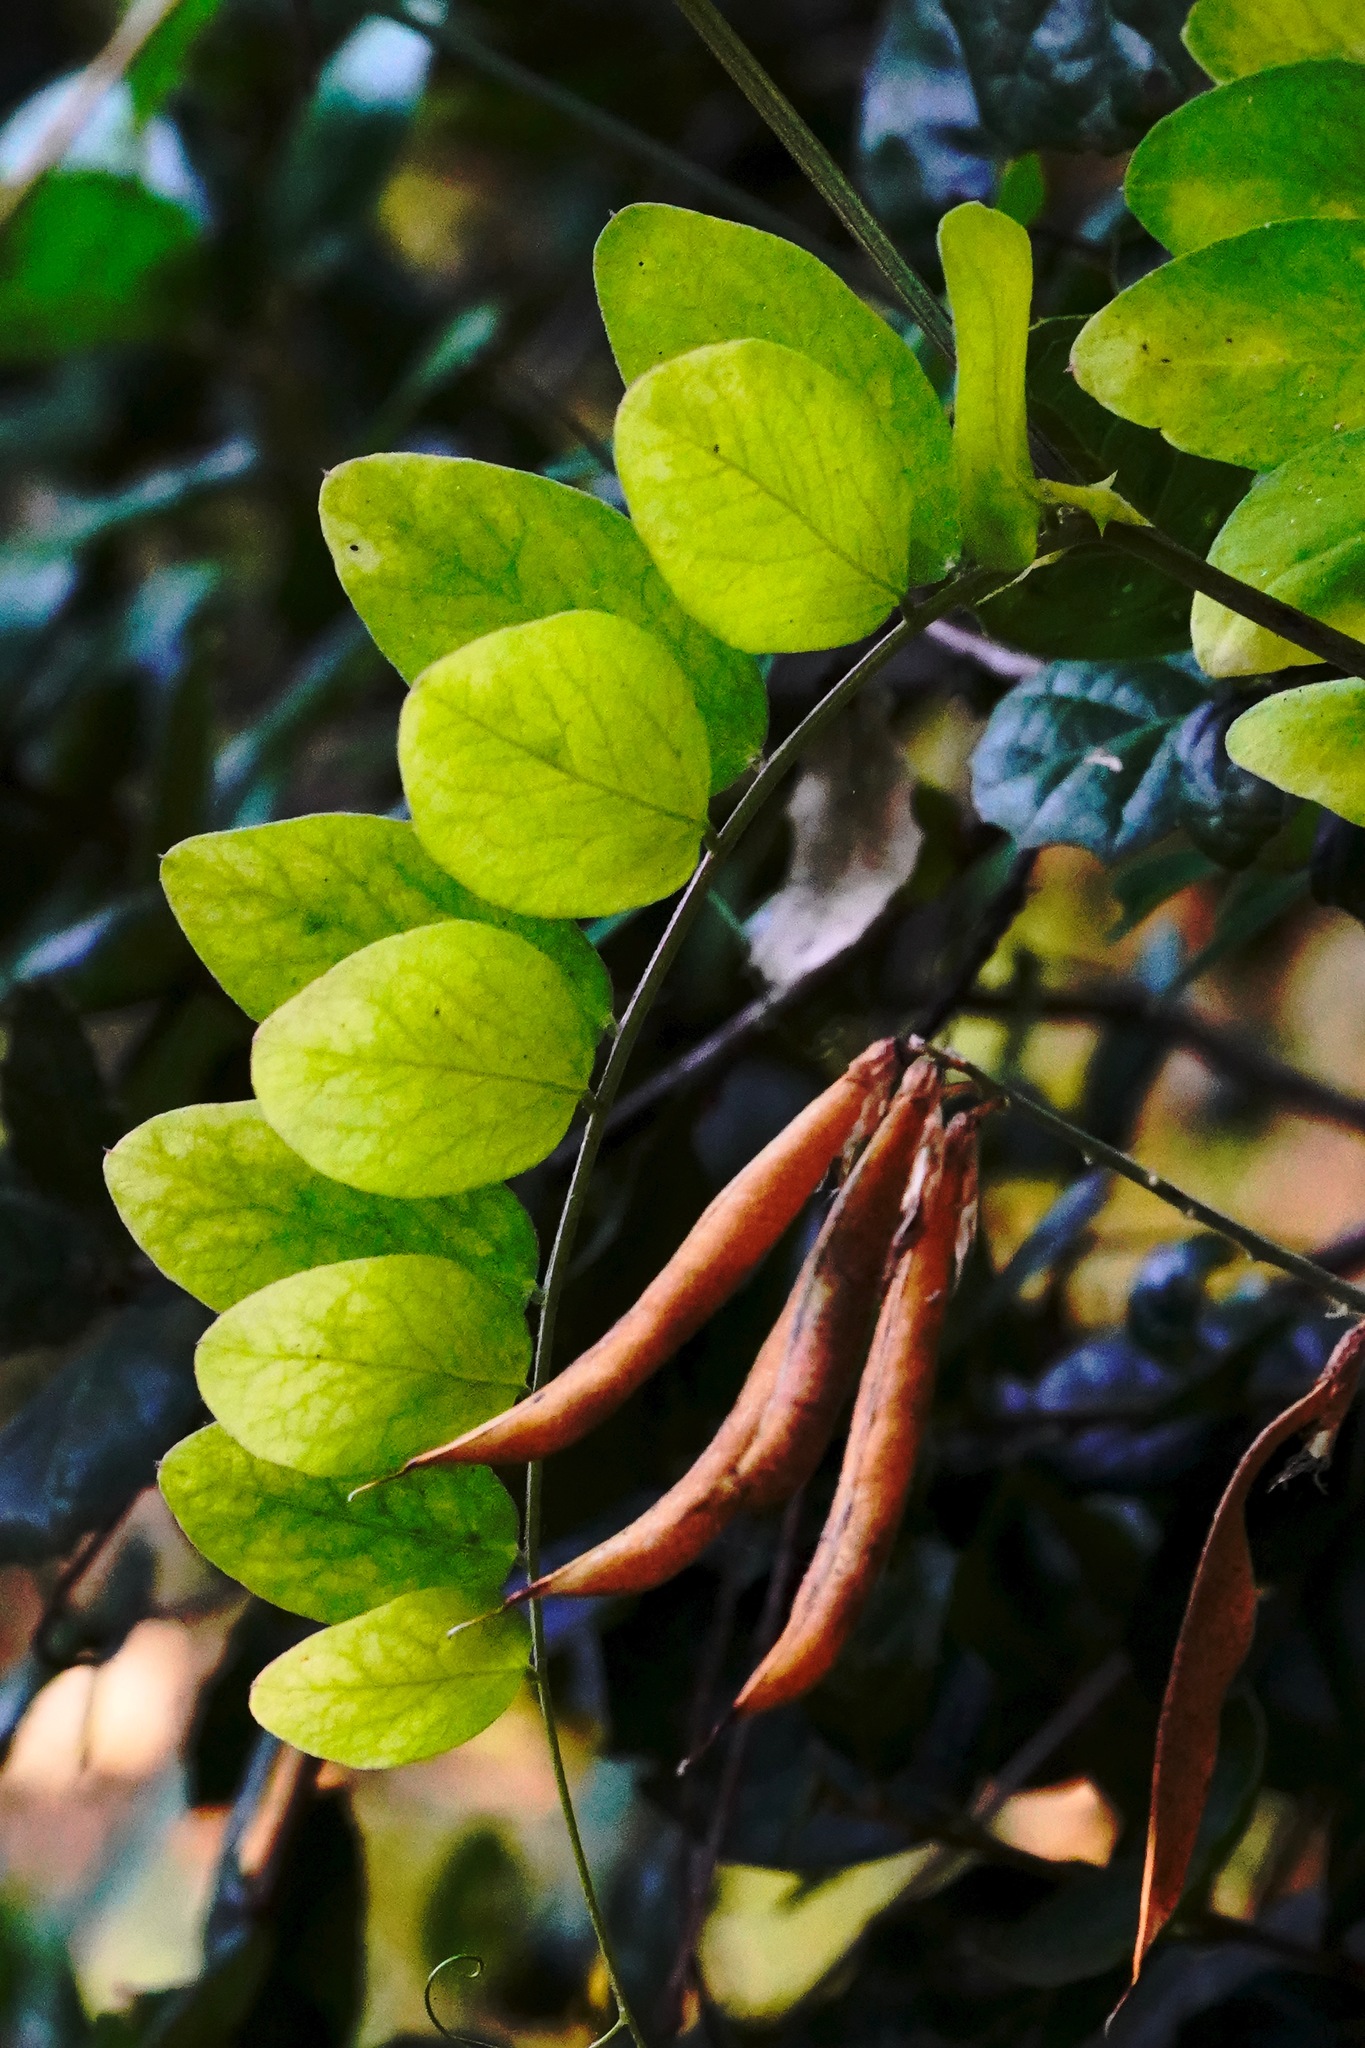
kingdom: Plantae
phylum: Tracheophyta
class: Magnoliopsida
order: Fabales
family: Fabaceae
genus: Lathyrus
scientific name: Lathyrus vestitus
